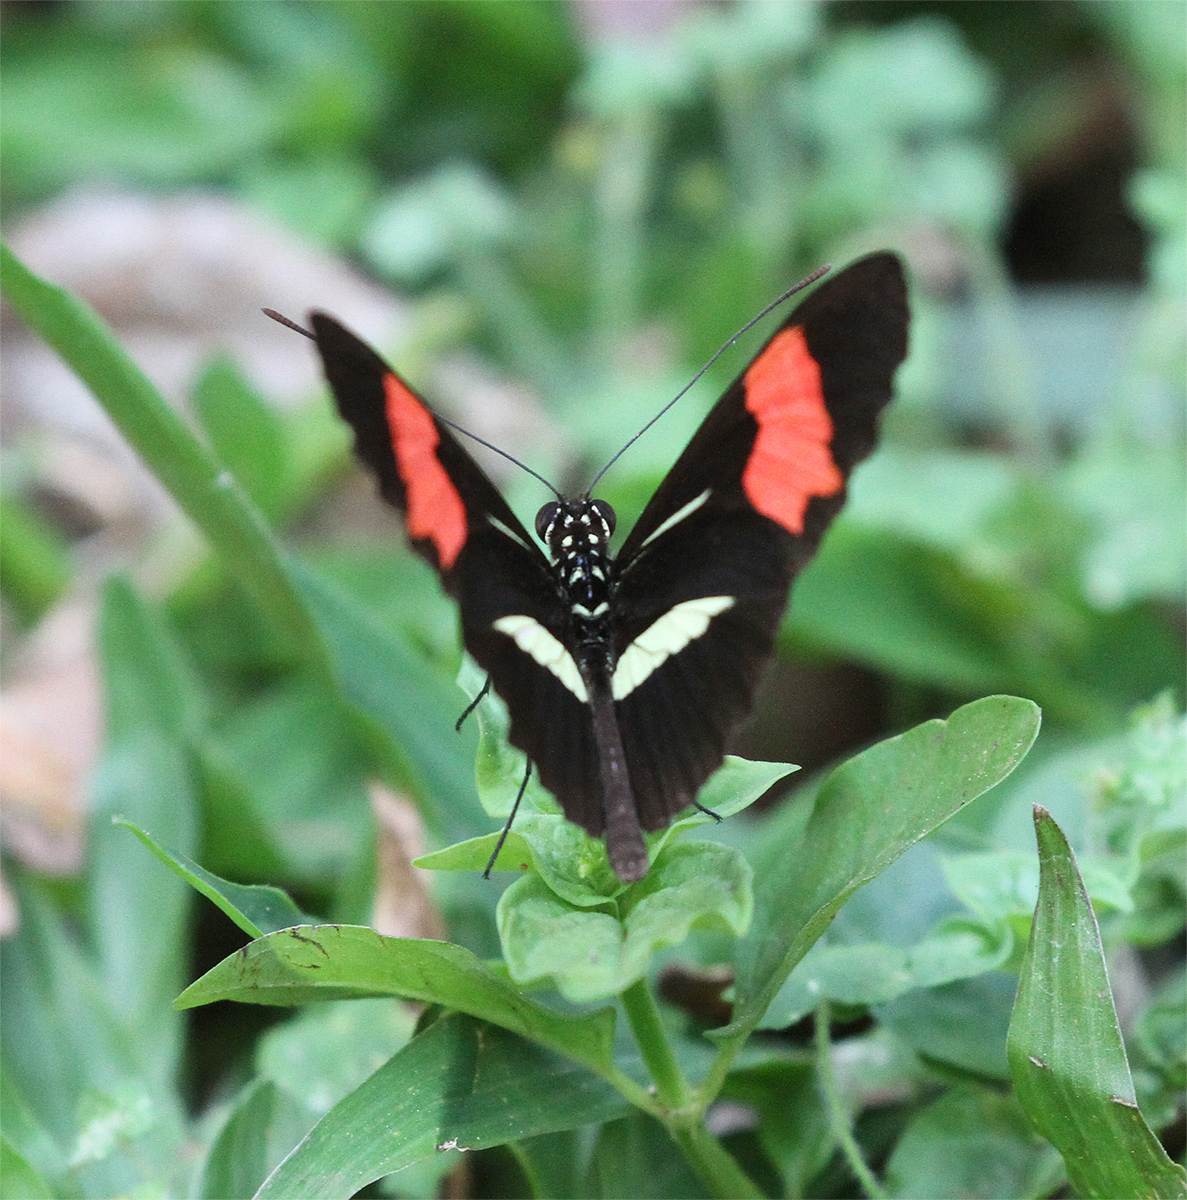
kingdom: Animalia
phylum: Arthropoda
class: Insecta
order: Lepidoptera
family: Nymphalidae
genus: Heliconius
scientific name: Heliconius erato
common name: Common patch longwing
